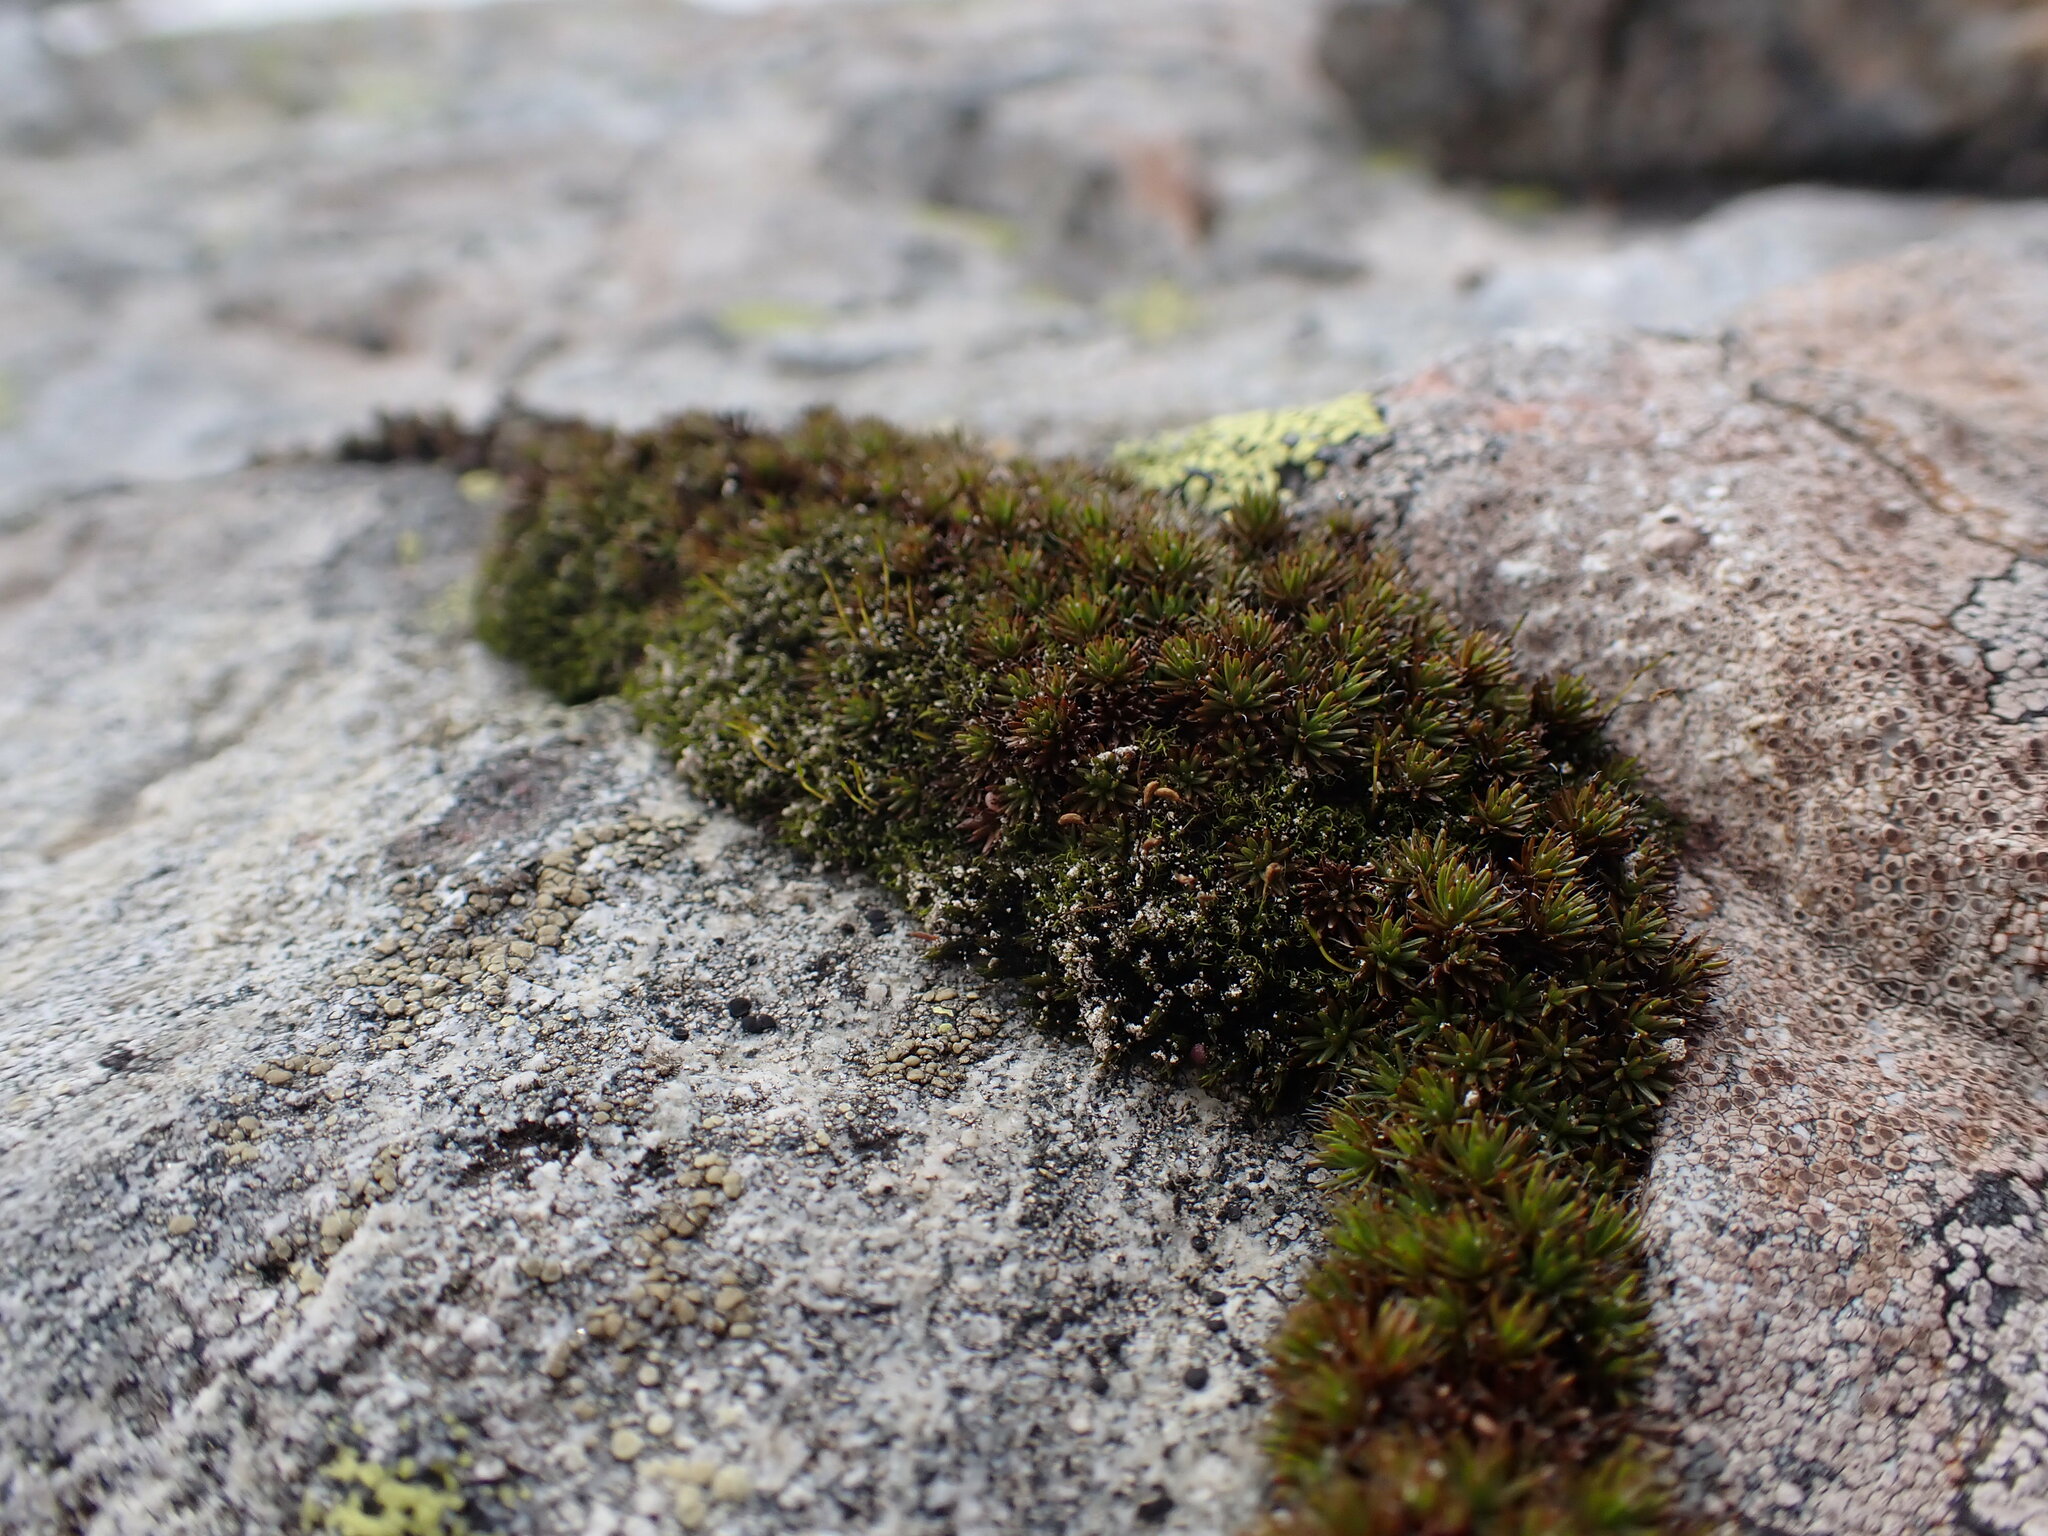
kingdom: Plantae
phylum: Bryophyta
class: Polytrichopsida
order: Polytrichales
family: Polytrichaceae
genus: Polytrichum
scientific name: Polytrichum piliferum
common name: Bristly haircap
